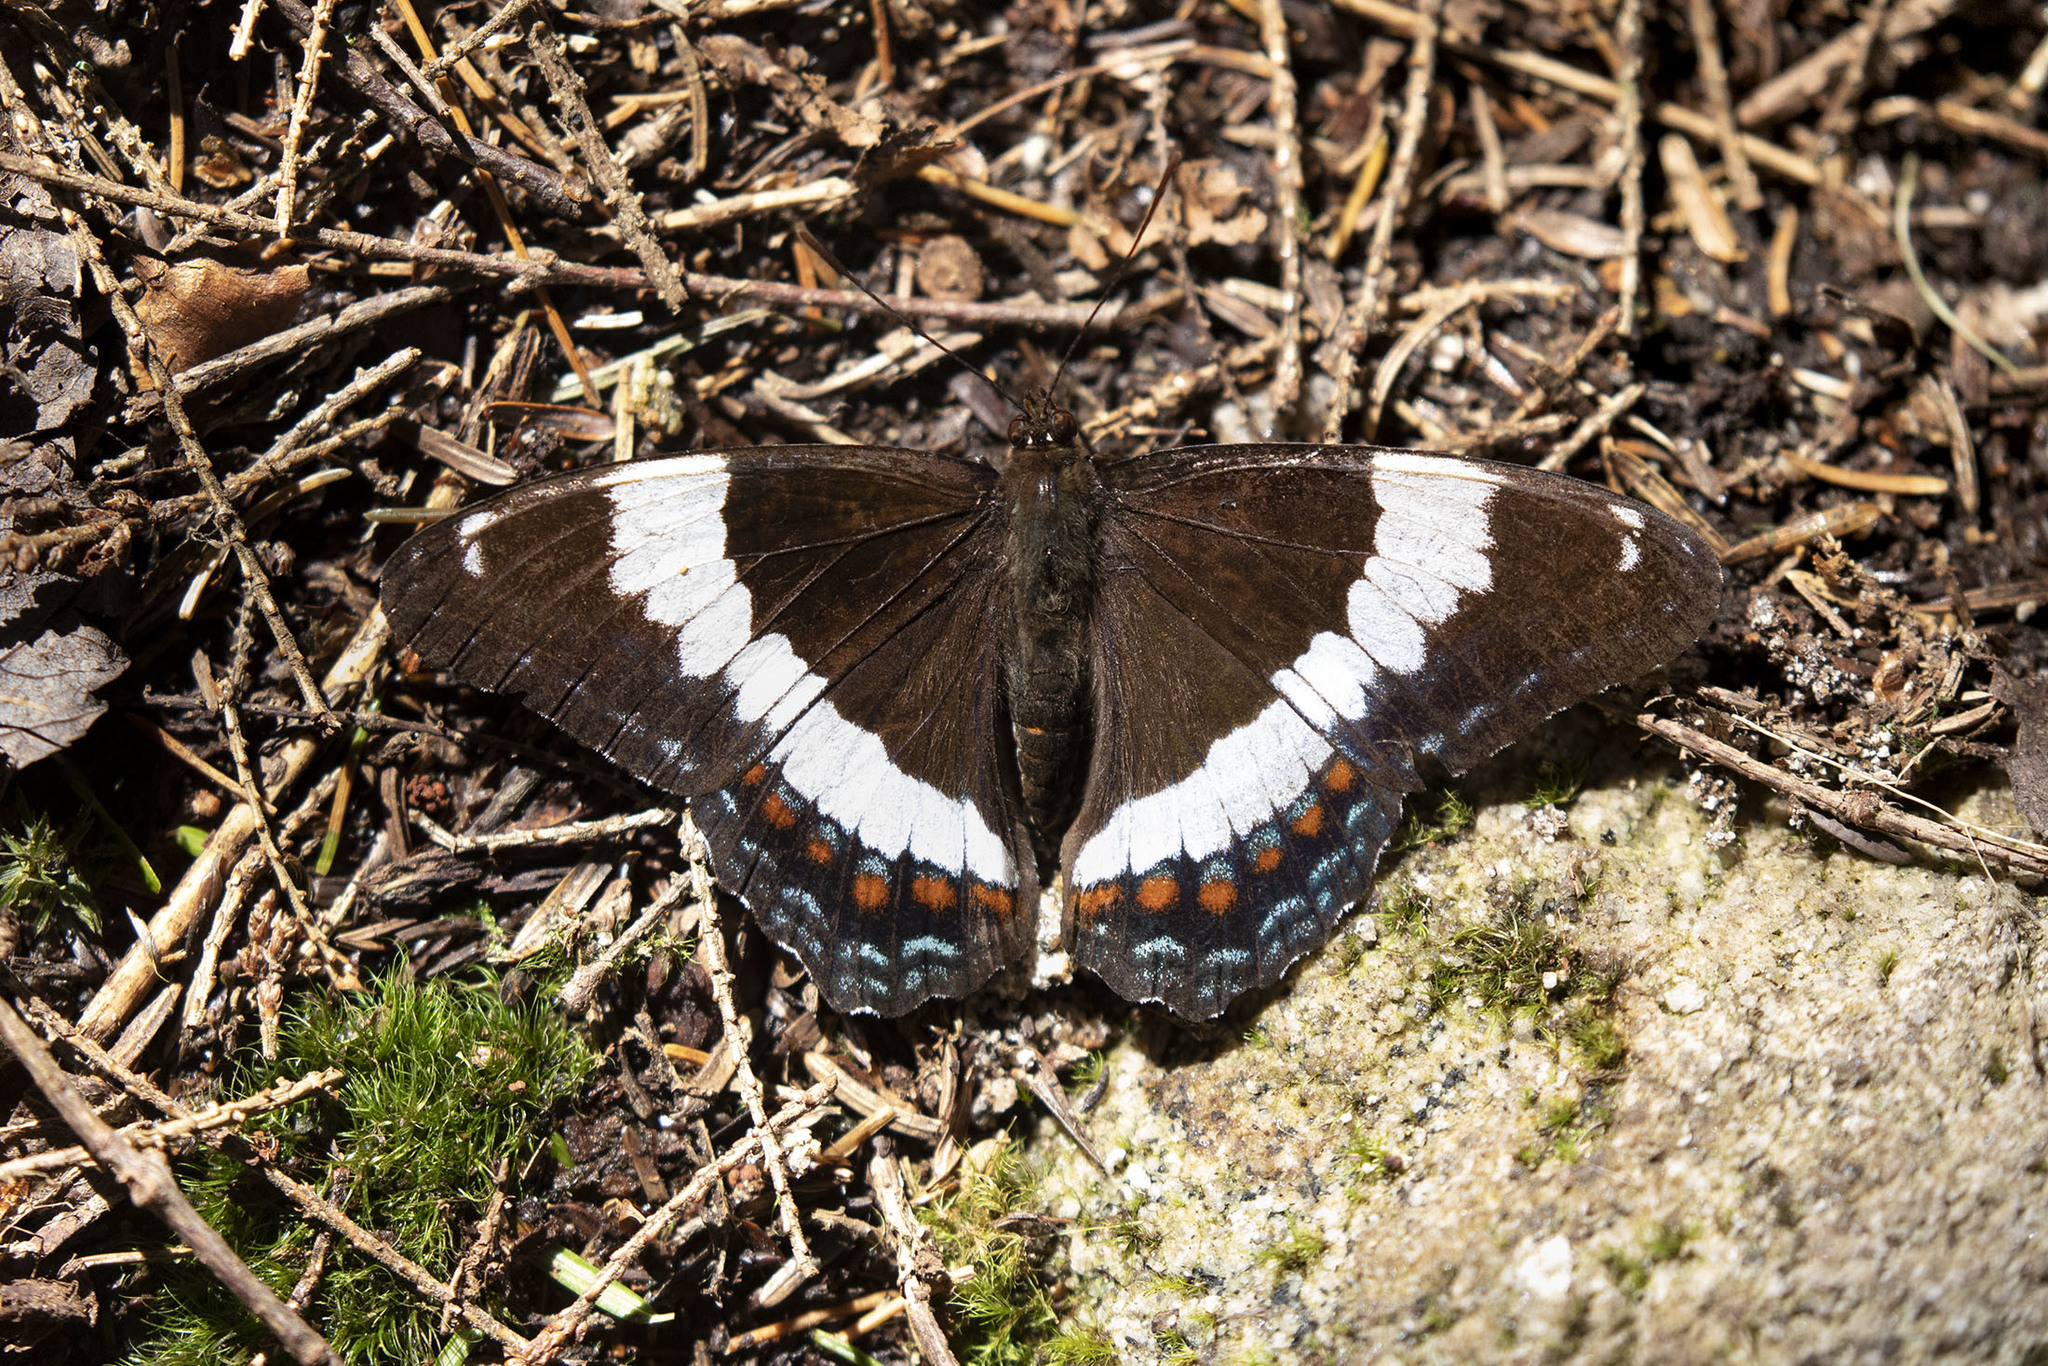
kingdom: Animalia
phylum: Arthropoda
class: Insecta
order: Lepidoptera
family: Nymphalidae
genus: Limenitis
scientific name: Limenitis arthemis
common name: Red-spotted admiral
